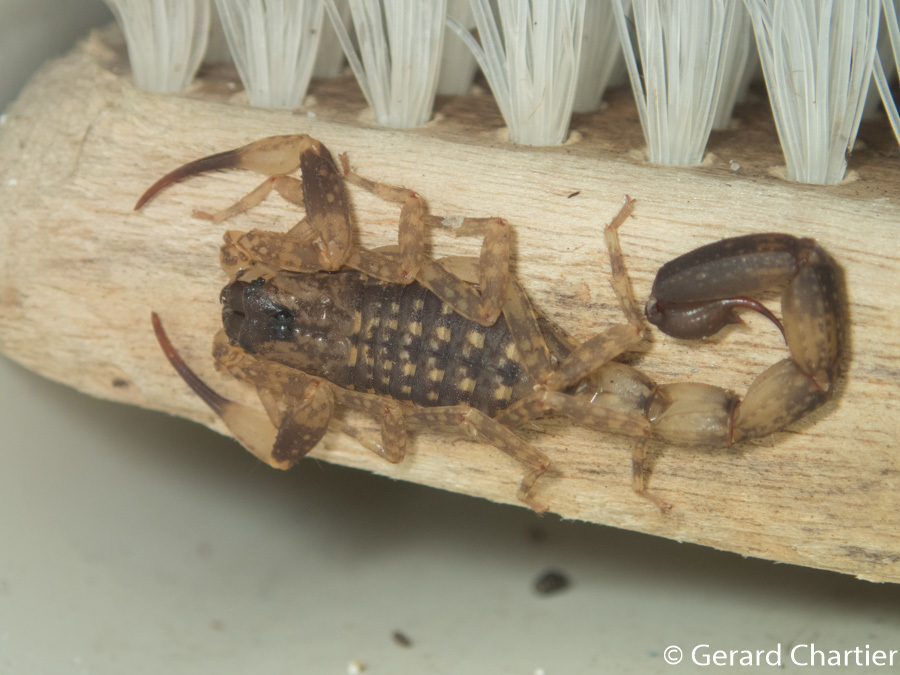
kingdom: Animalia
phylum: Arthropoda
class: Arachnida
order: Scorpiones
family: Buthidae
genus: Lychas
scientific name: Lychas mucronatus
